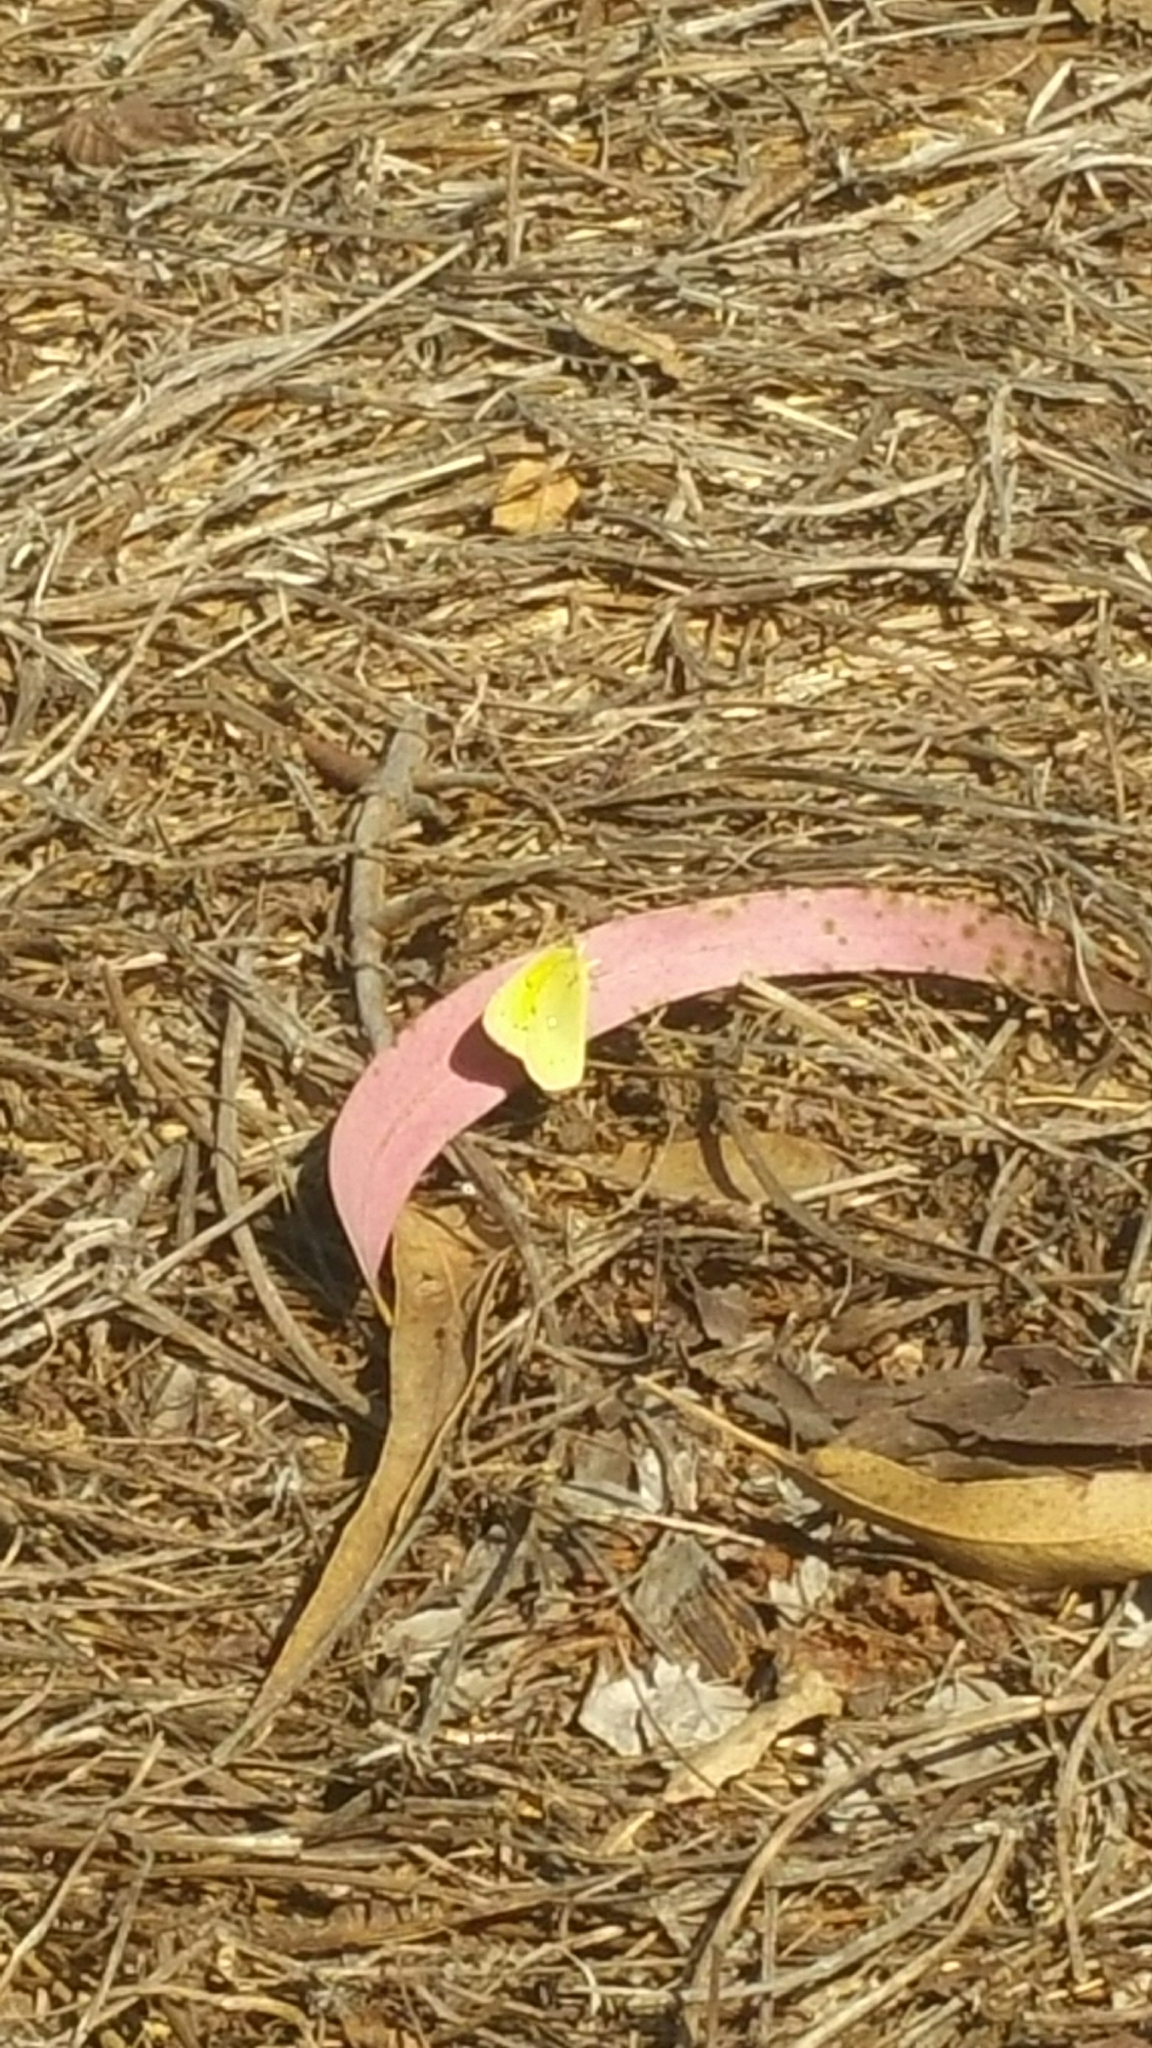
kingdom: Animalia
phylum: Arthropoda
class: Insecta
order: Lepidoptera
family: Pieridae
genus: Colias
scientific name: Colias eurytheme
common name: Alfalfa butterfly
